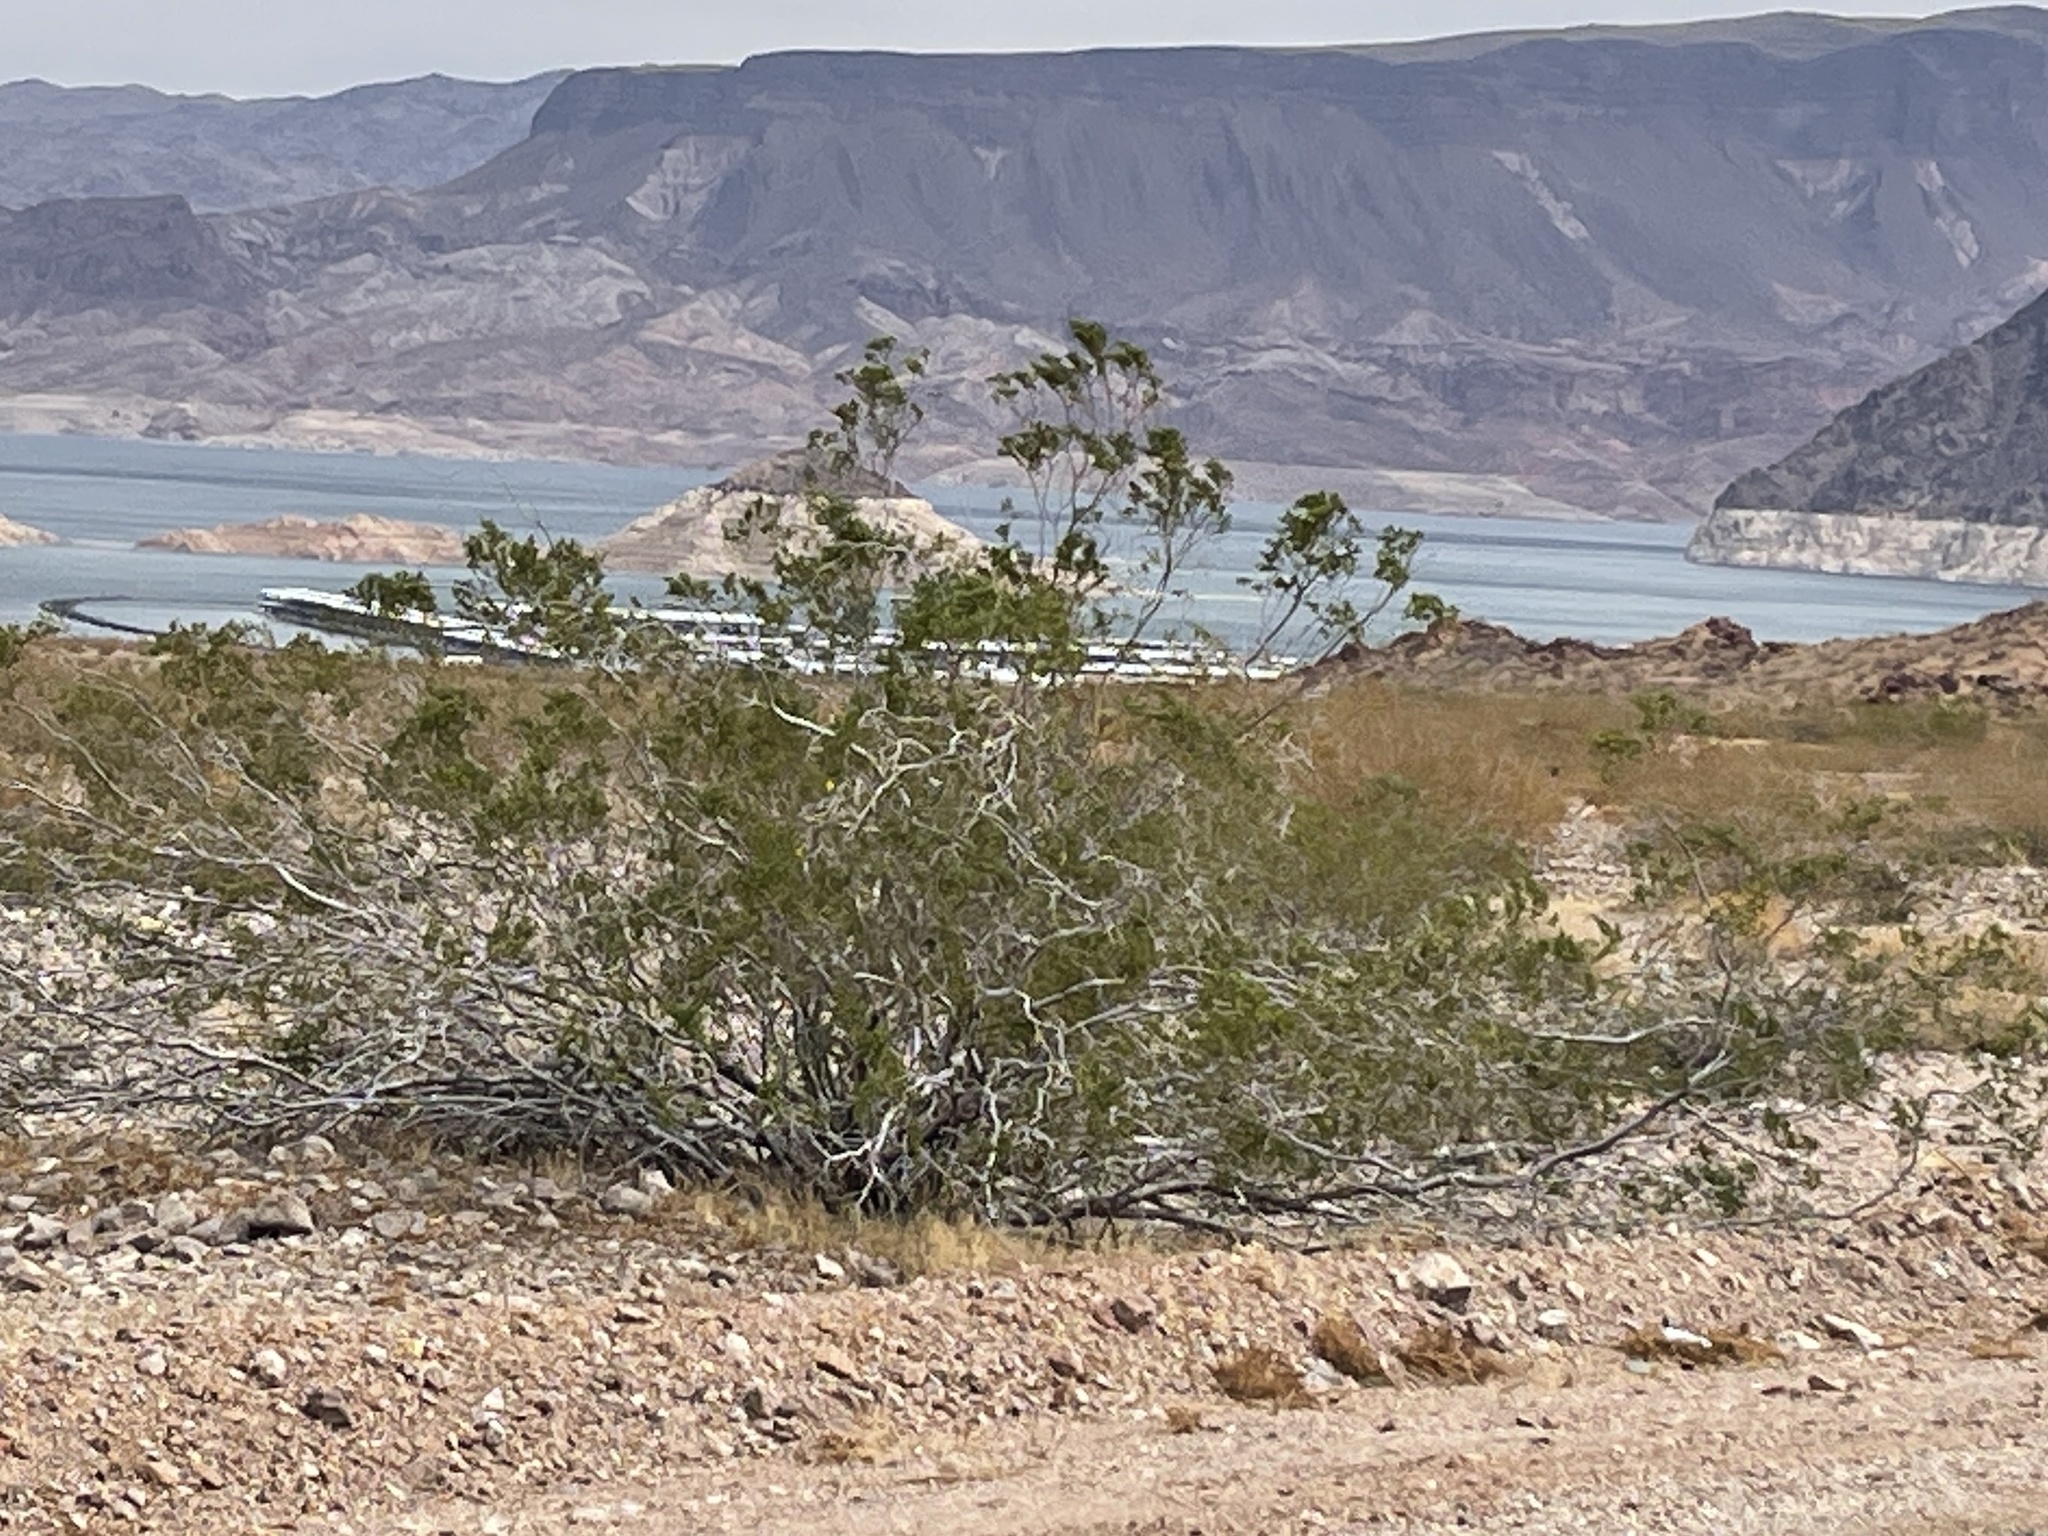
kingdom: Plantae
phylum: Tracheophyta
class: Magnoliopsida
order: Zygophyllales
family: Zygophyllaceae
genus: Larrea
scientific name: Larrea tridentata
